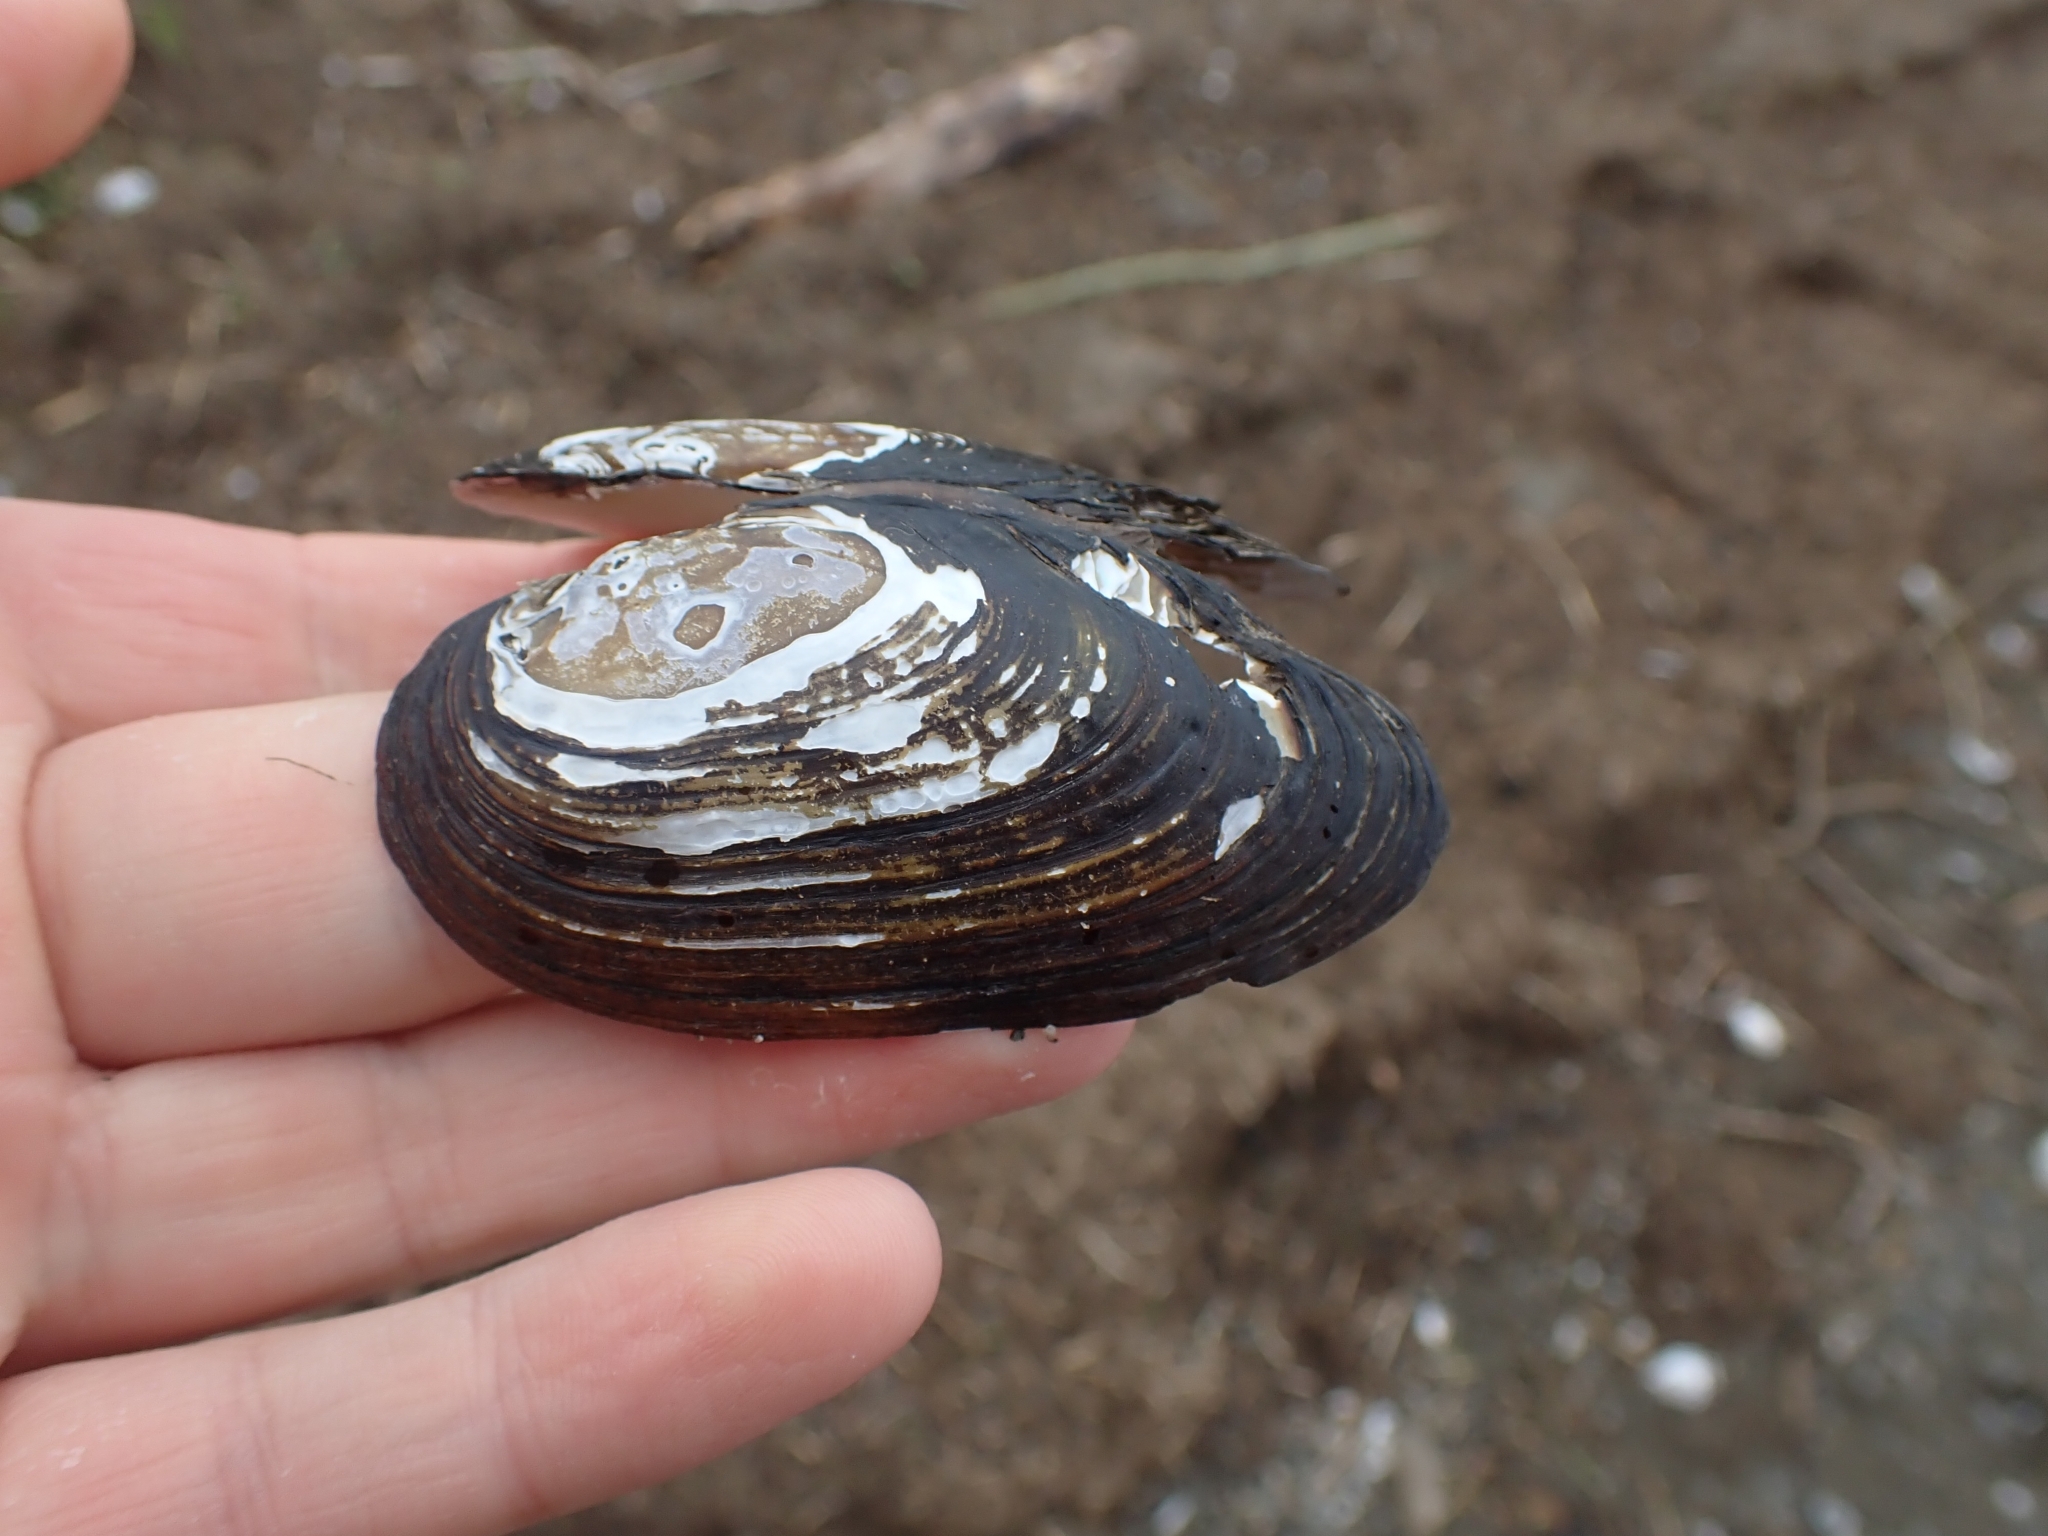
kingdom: Animalia
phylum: Mollusca
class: Bivalvia
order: Unionida
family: Hyriidae
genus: Echyridella
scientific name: Echyridella menziesii
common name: New zealand freshwater mussel
